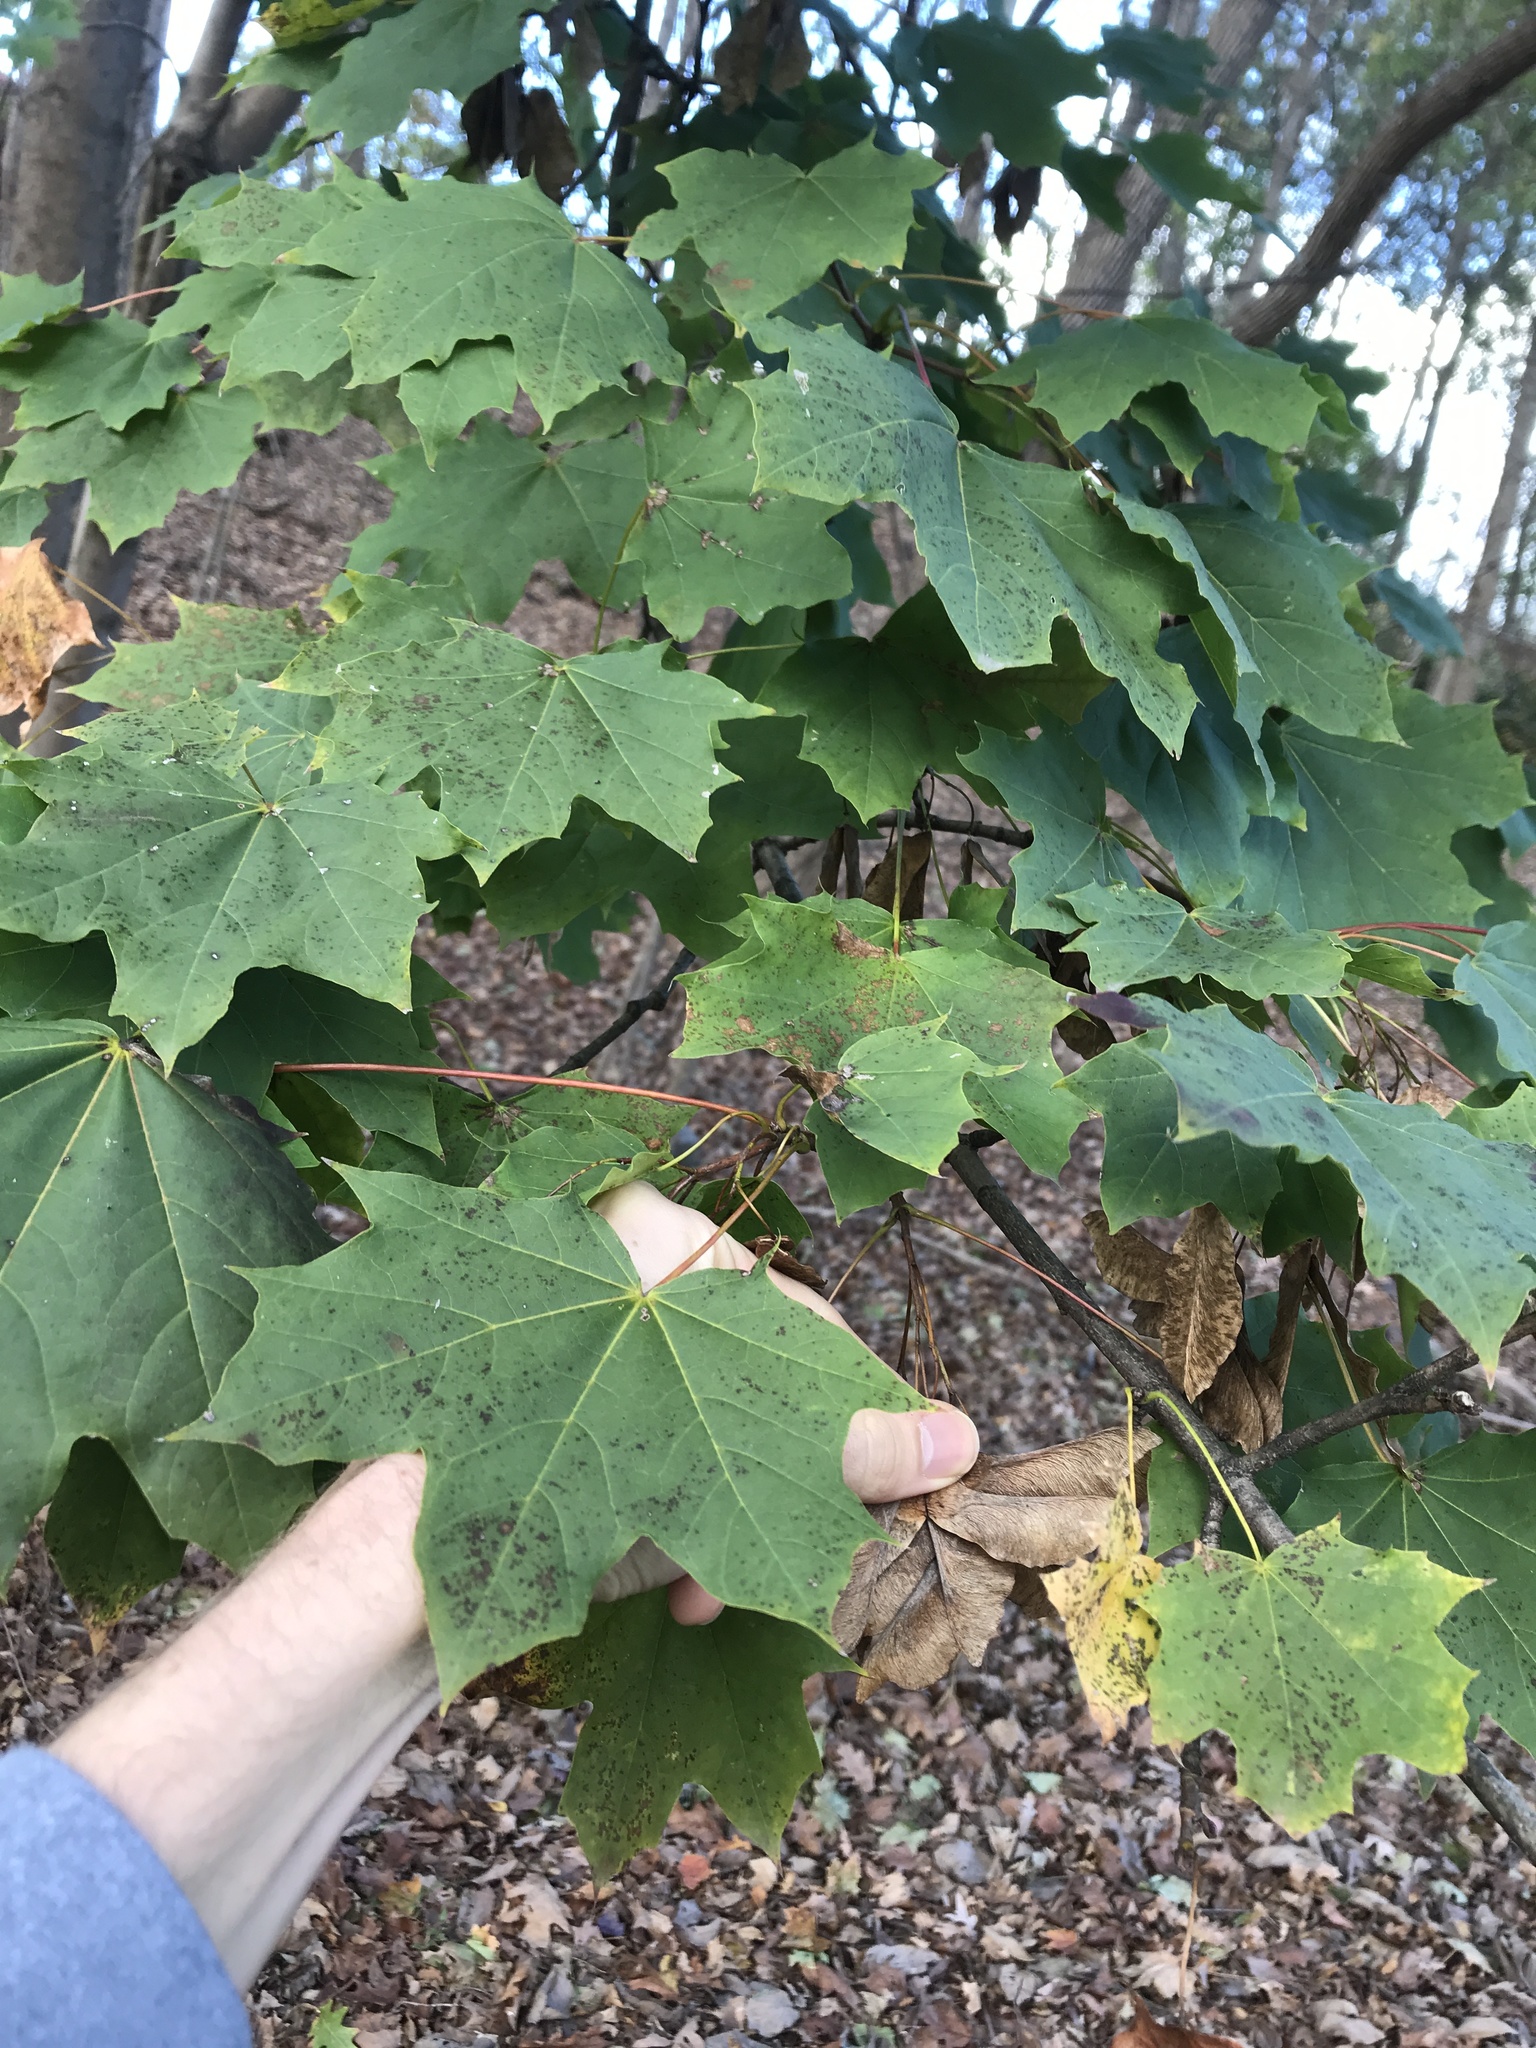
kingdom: Plantae
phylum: Tracheophyta
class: Magnoliopsida
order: Sapindales
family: Sapindaceae
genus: Acer
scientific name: Acer platanoides
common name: Norway maple
